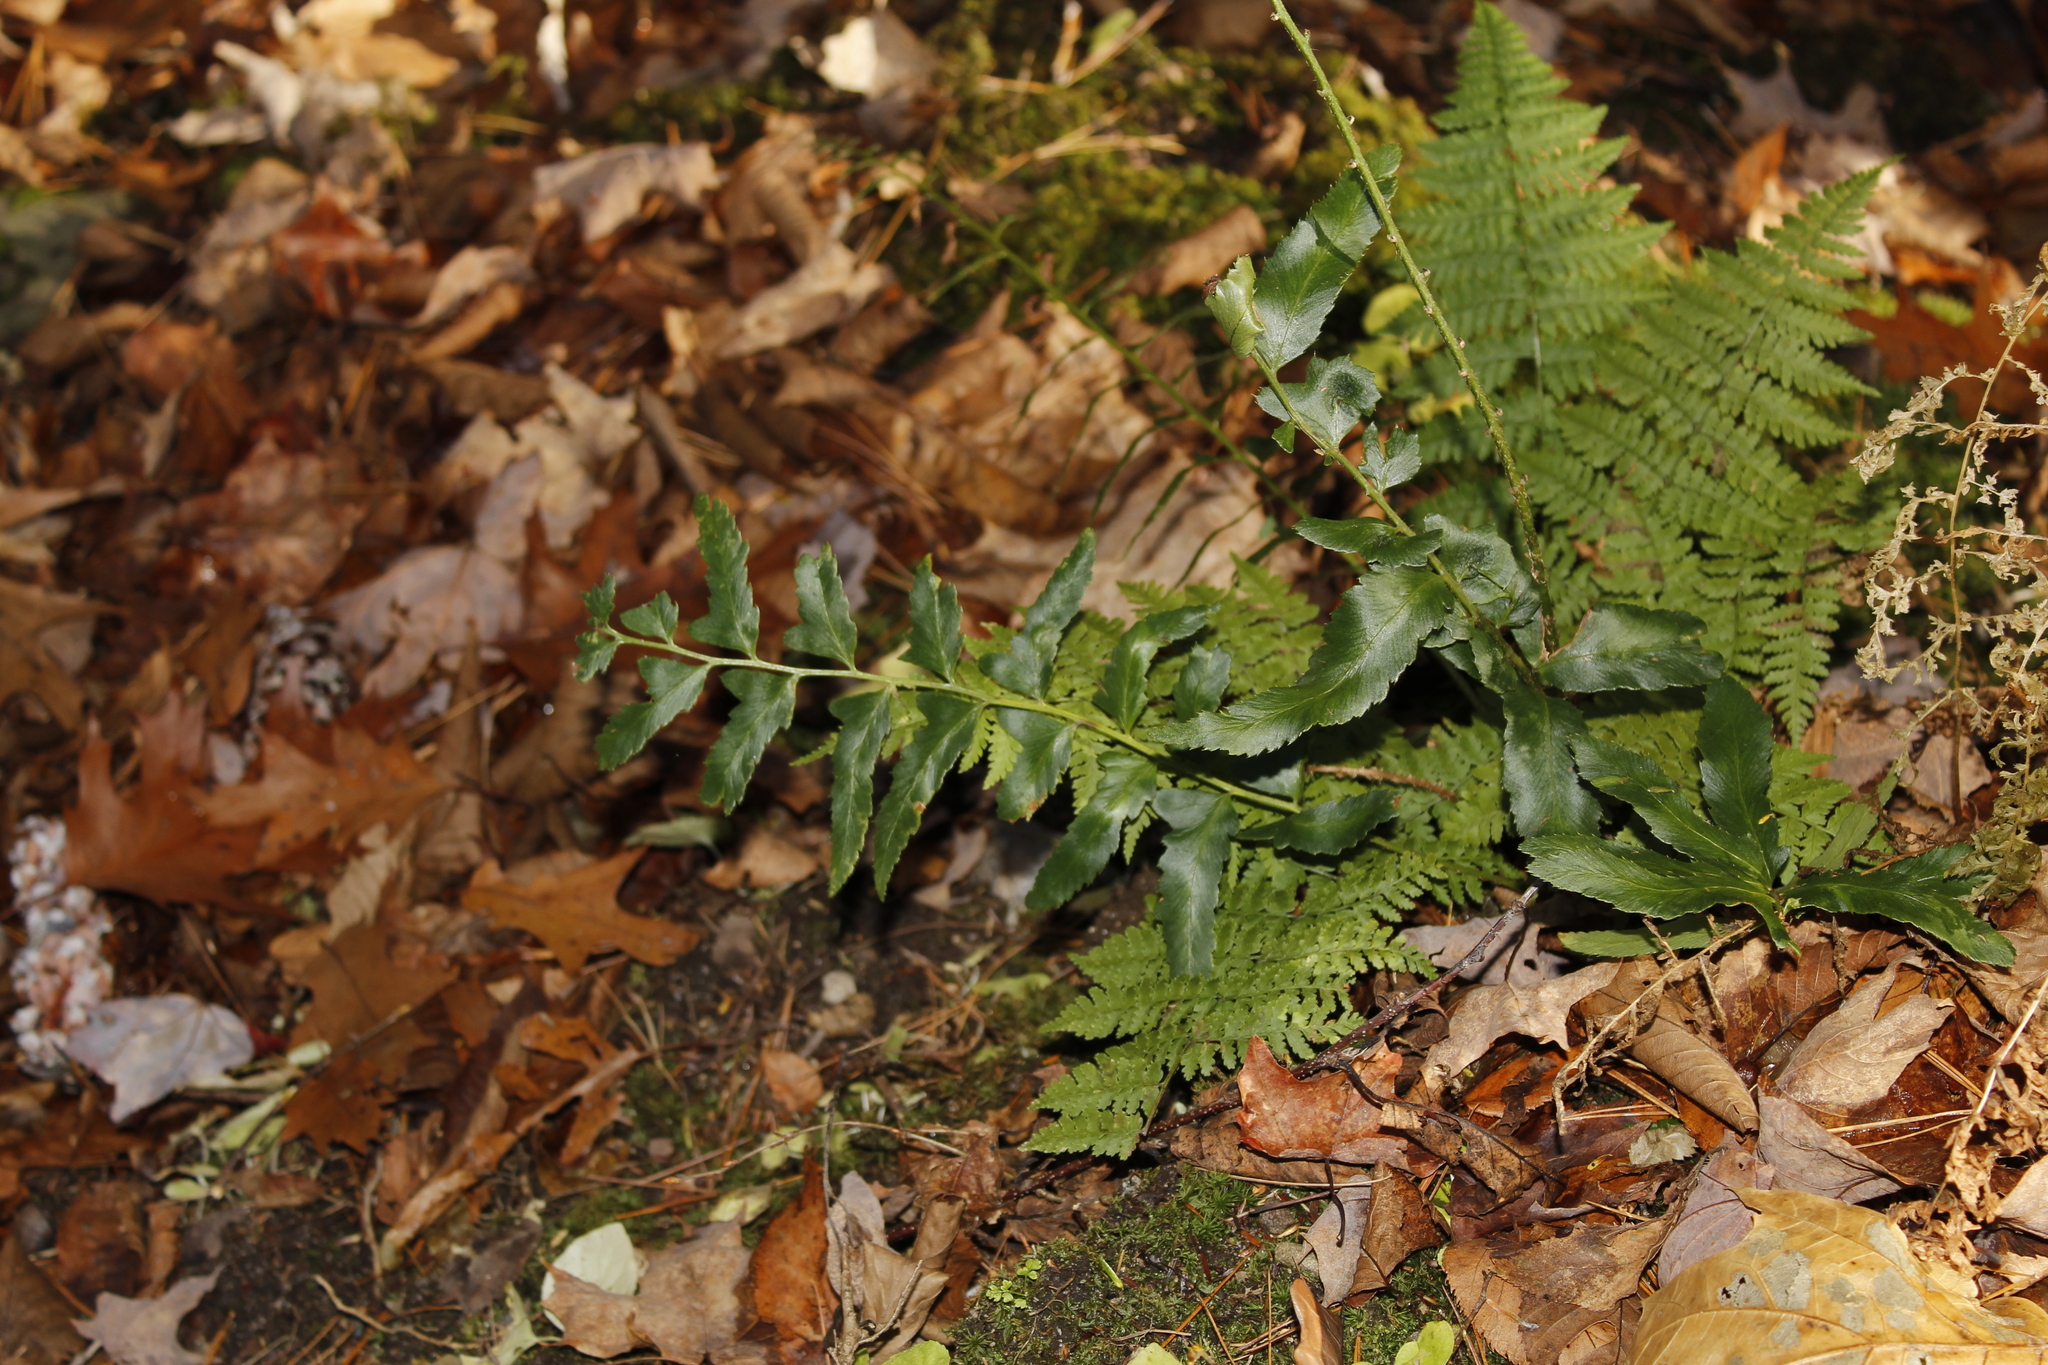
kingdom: Plantae
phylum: Tracheophyta
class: Polypodiopsida
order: Polypodiales
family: Dryopteridaceae
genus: Polystichum
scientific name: Polystichum acrostichoides
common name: Christmas fern
